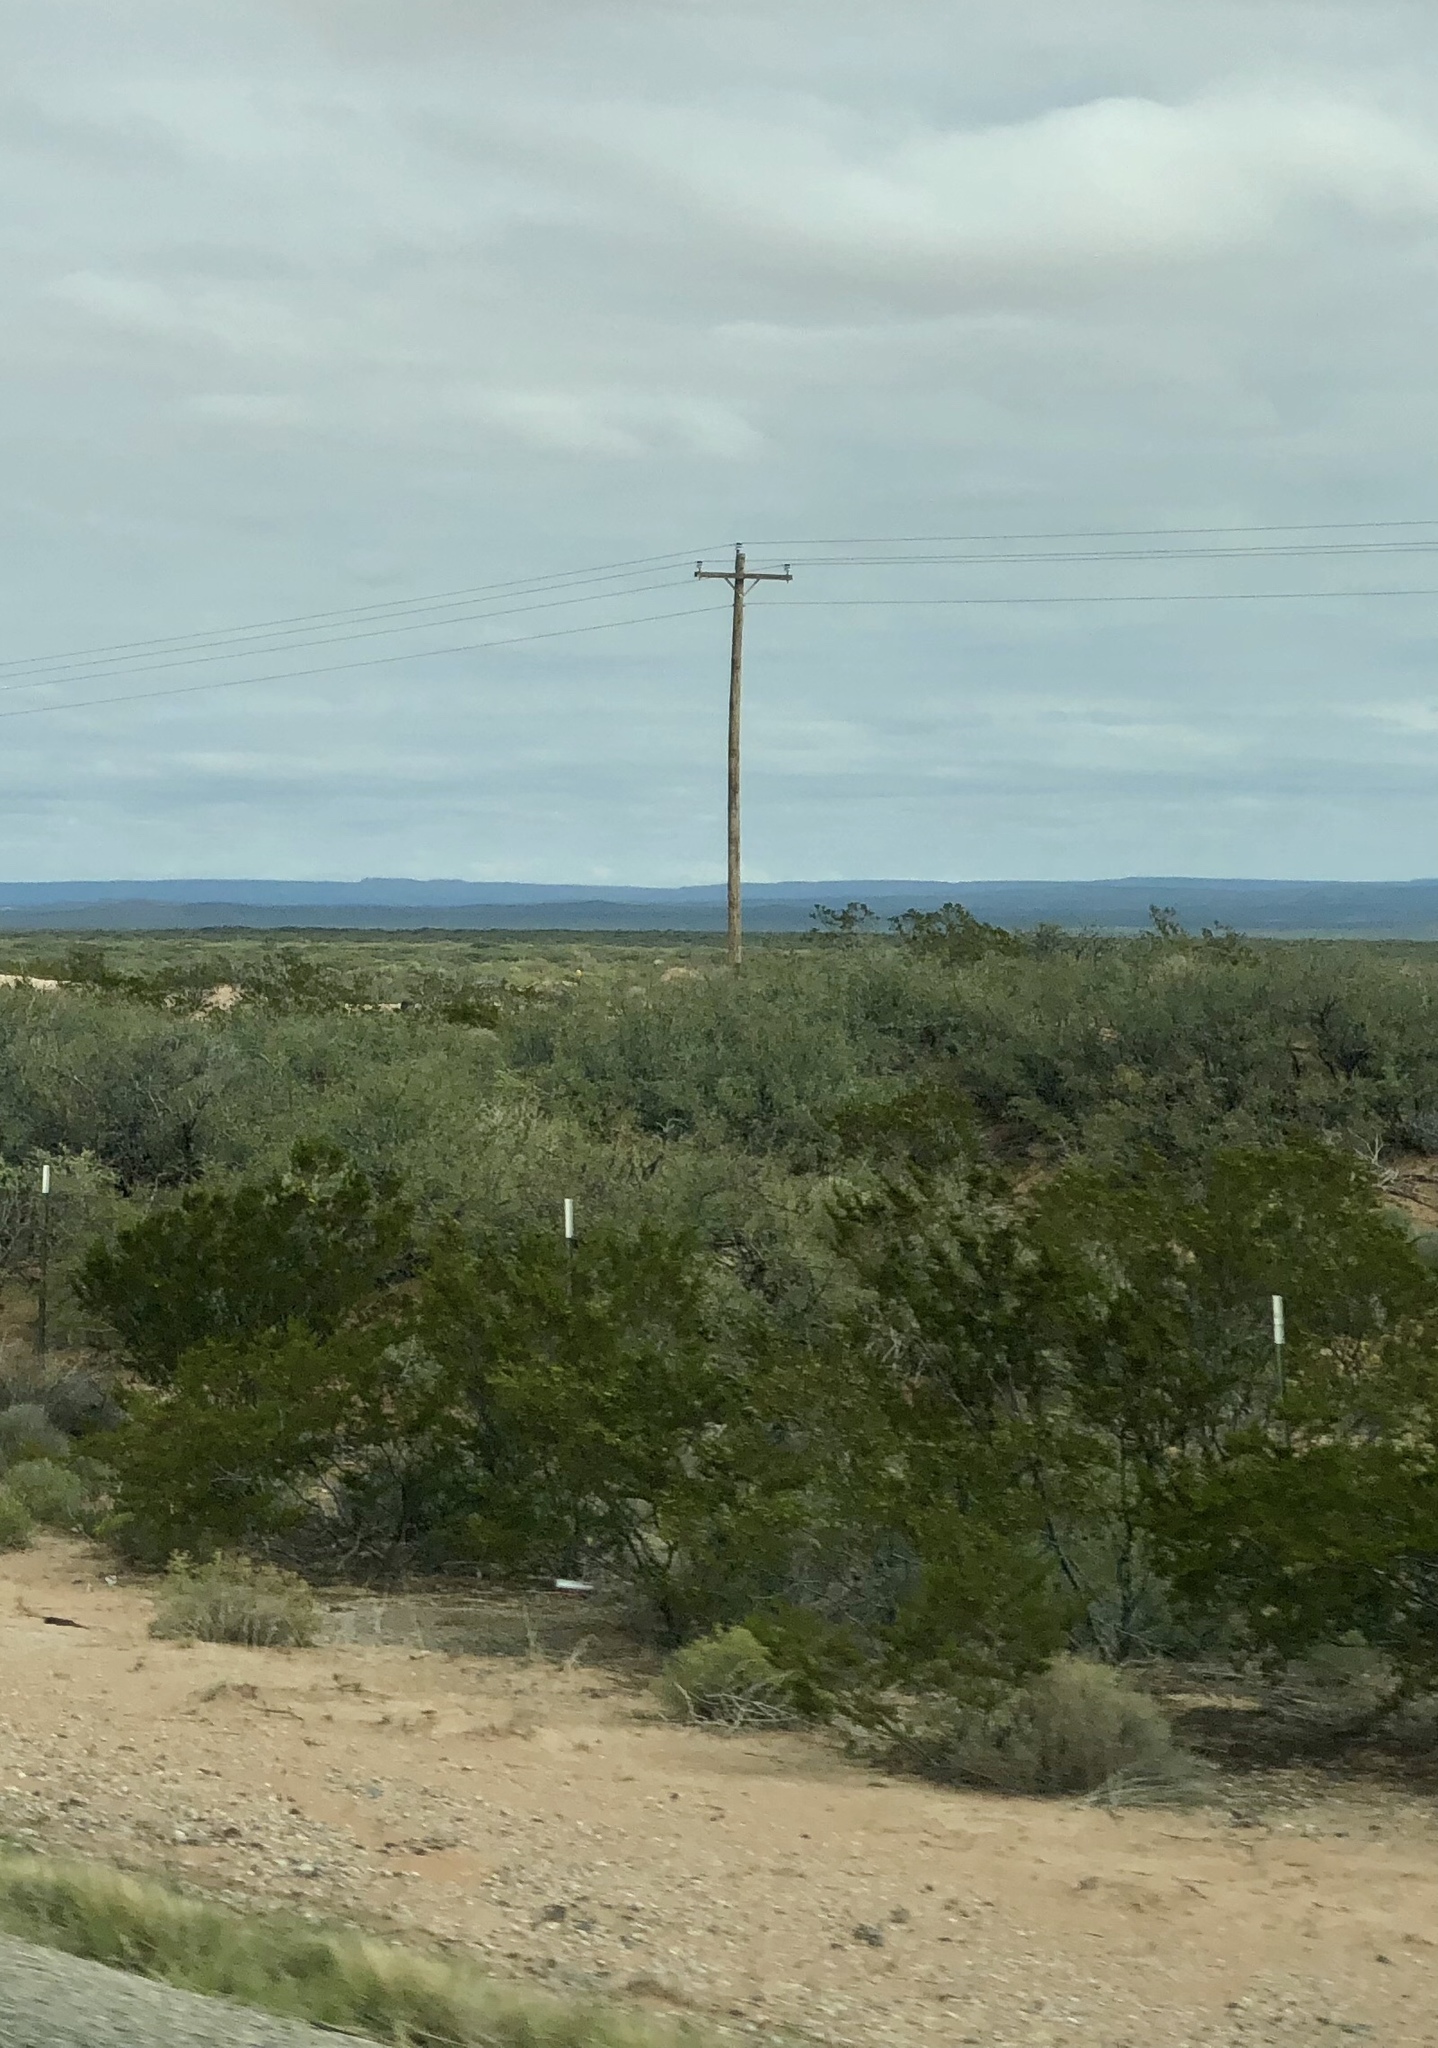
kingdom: Plantae
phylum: Tracheophyta
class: Magnoliopsida
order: Zygophyllales
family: Zygophyllaceae
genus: Larrea
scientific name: Larrea tridentata
